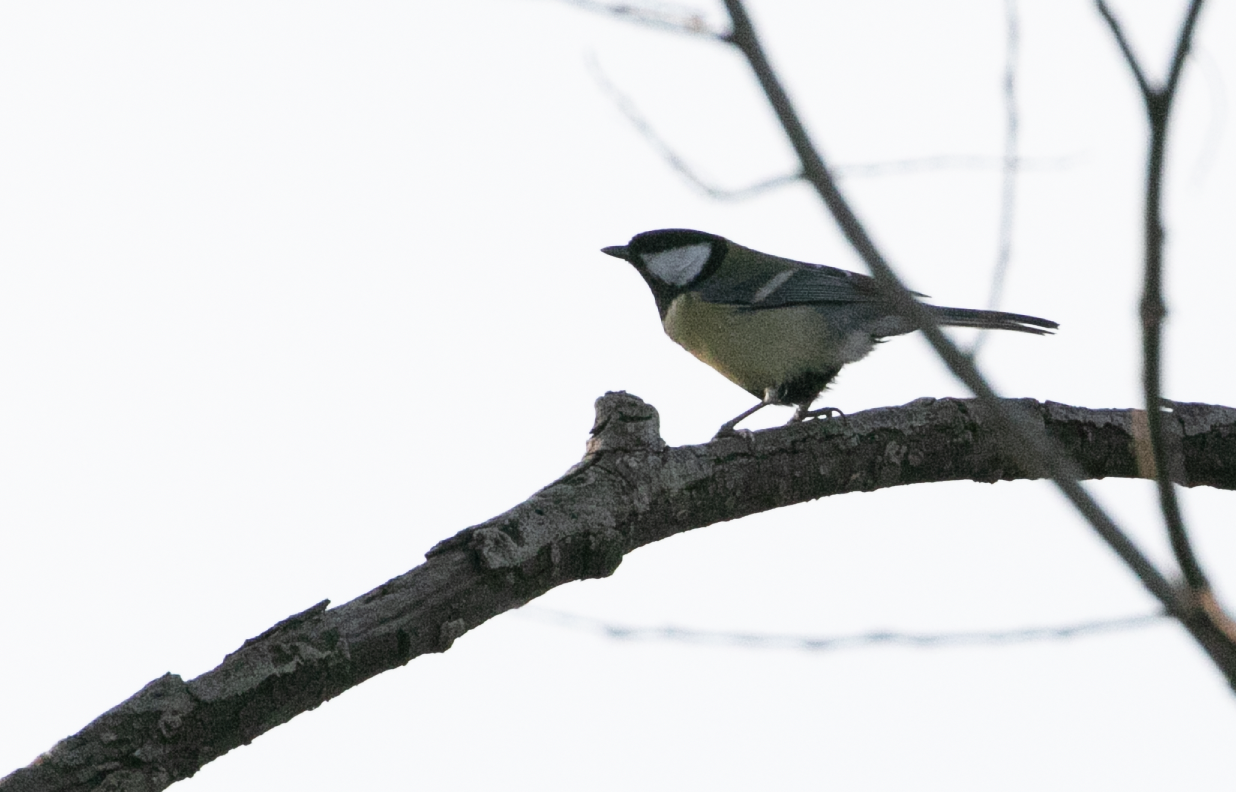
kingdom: Animalia
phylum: Chordata
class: Aves
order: Passeriformes
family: Paridae
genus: Parus
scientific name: Parus major
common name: Great tit
